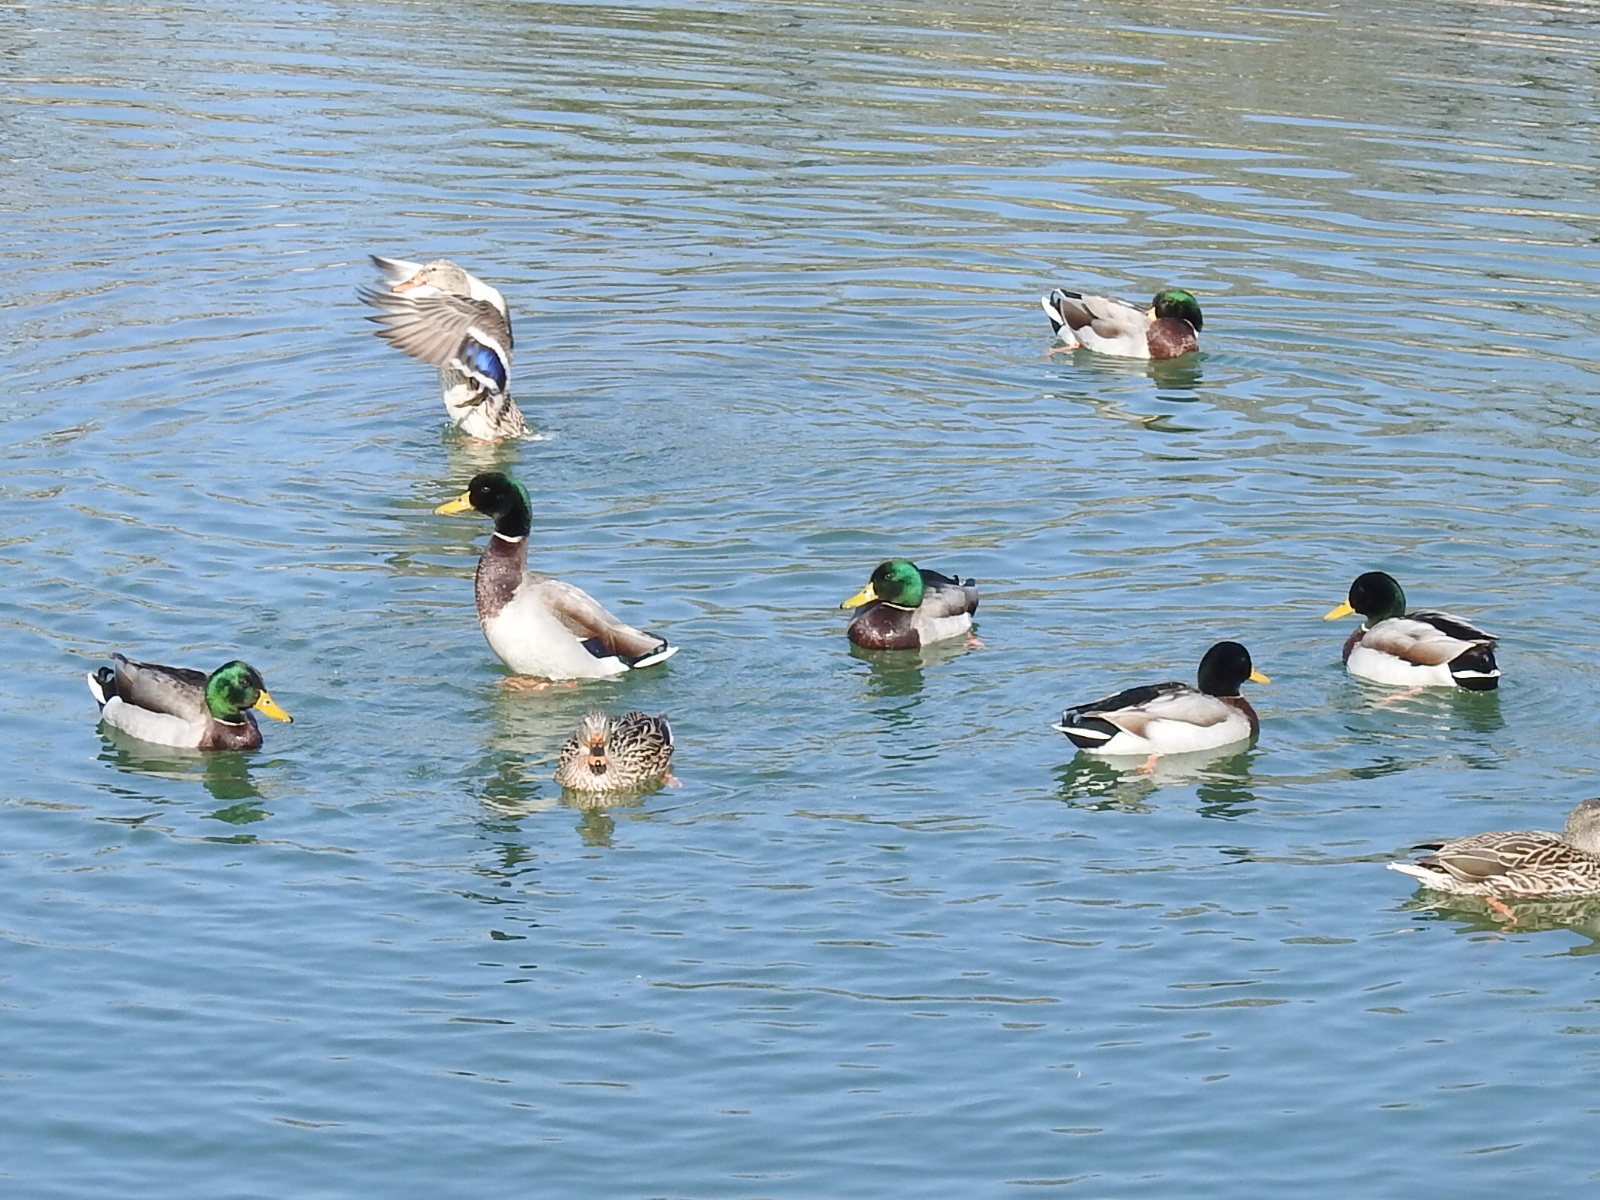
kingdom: Animalia
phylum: Chordata
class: Aves
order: Anseriformes
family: Anatidae
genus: Anas
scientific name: Anas platyrhynchos
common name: Mallard
